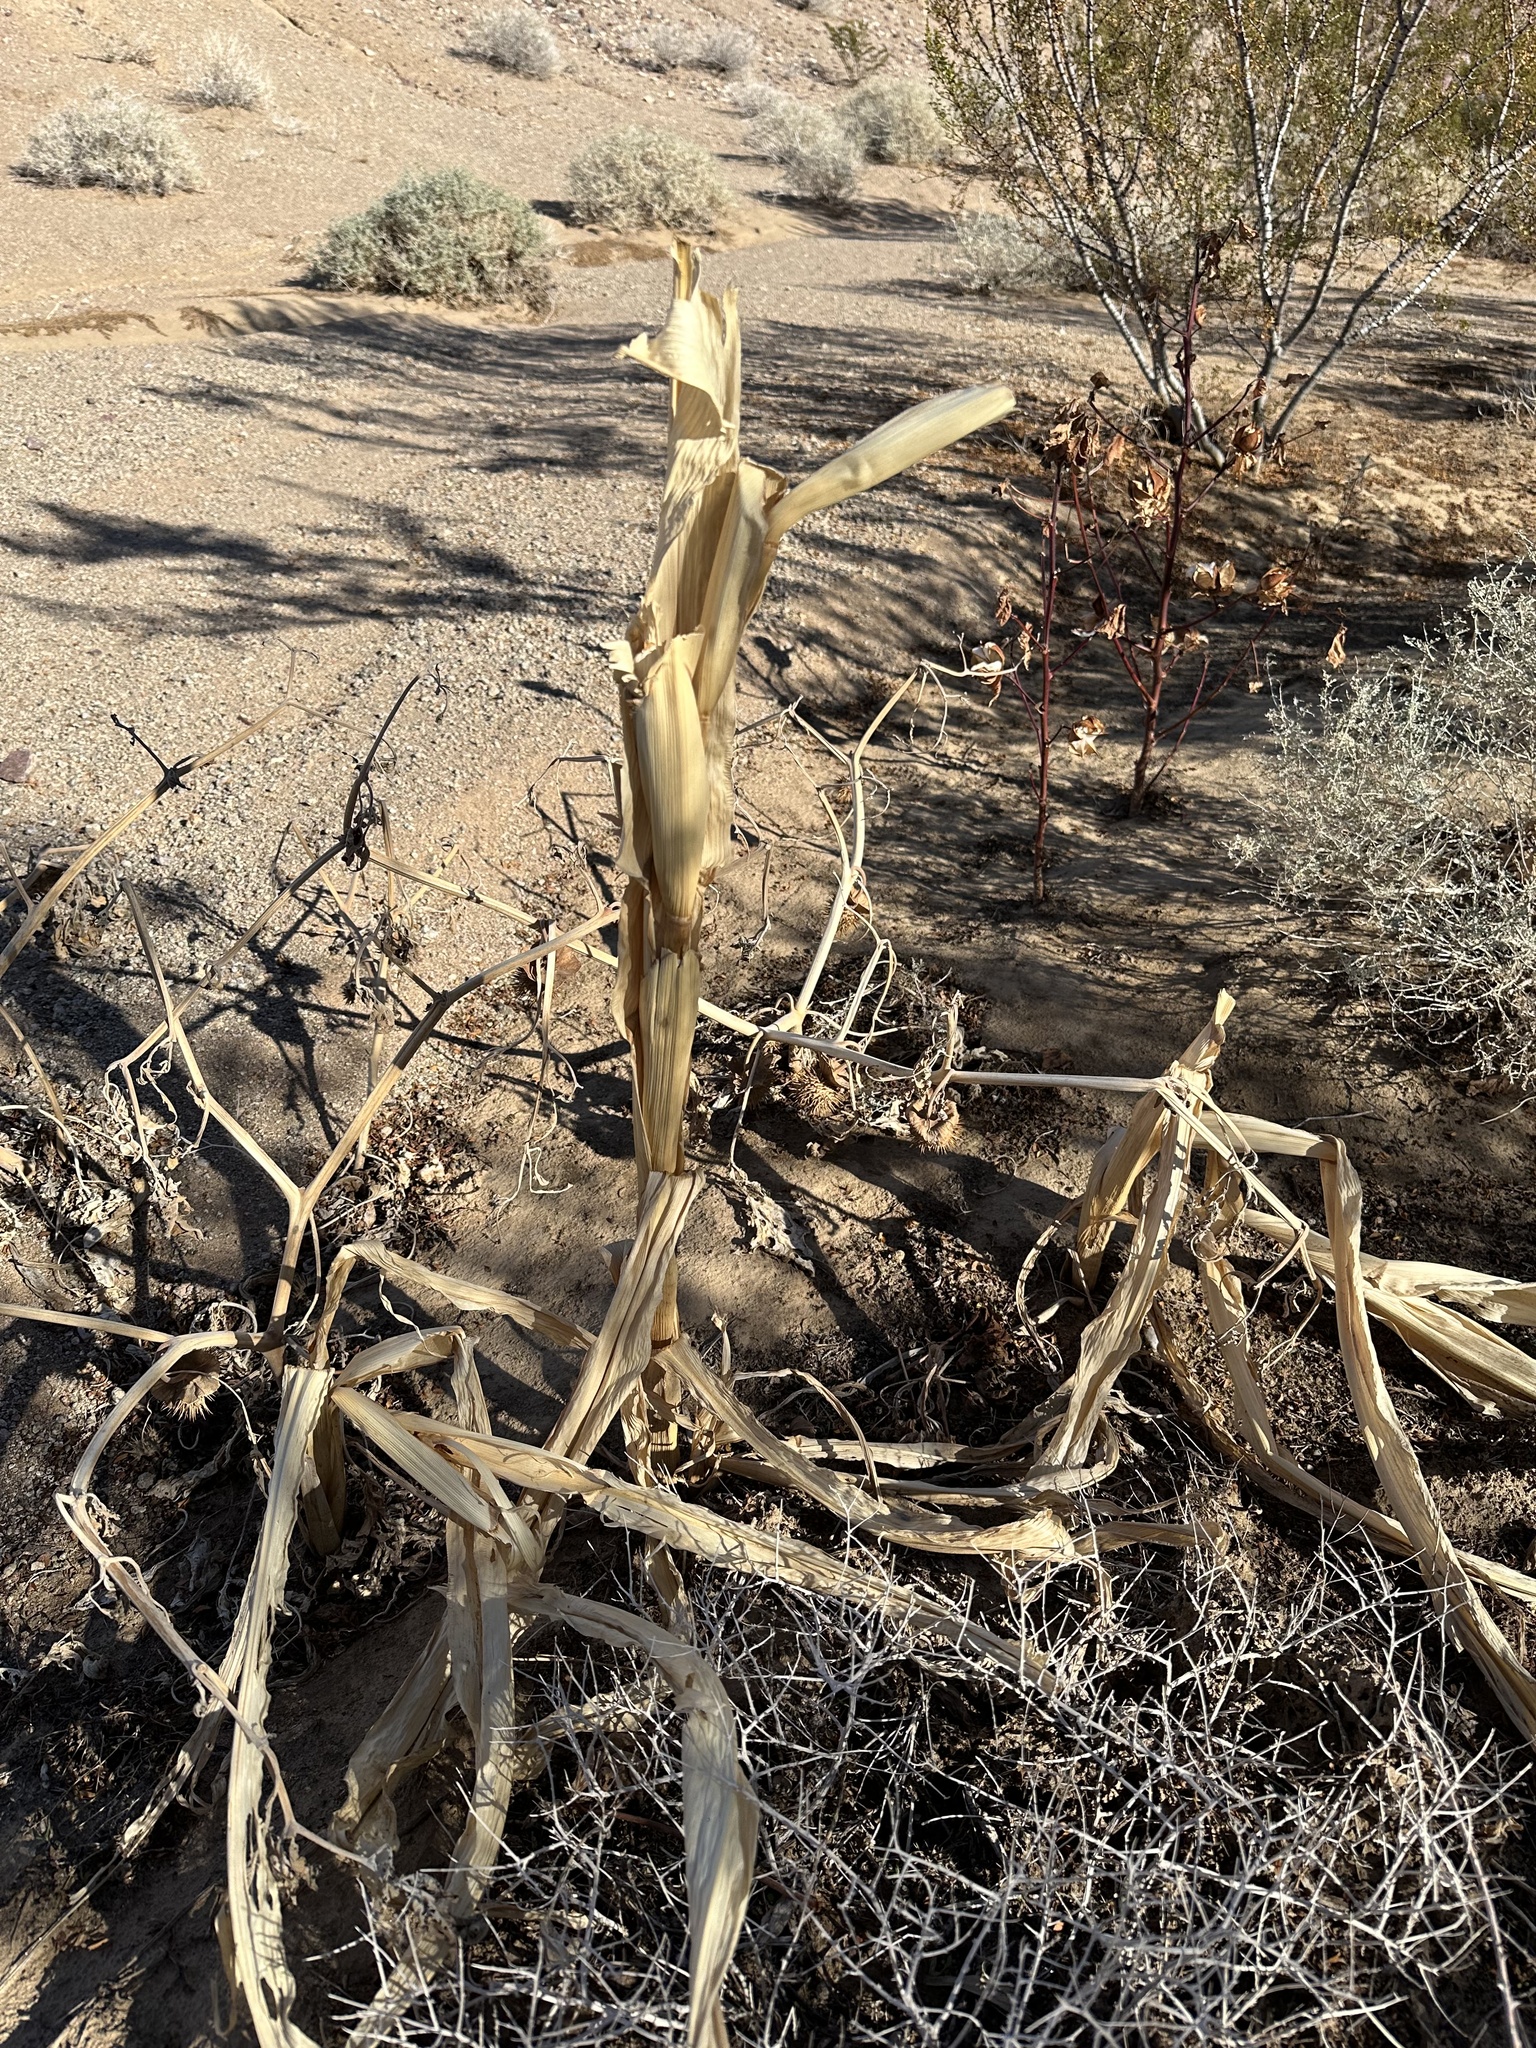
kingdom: Plantae
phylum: Tracheophyta
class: Liliopsida
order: Poales
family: Poaceae
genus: Zea
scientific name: Zea mays
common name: Maize
